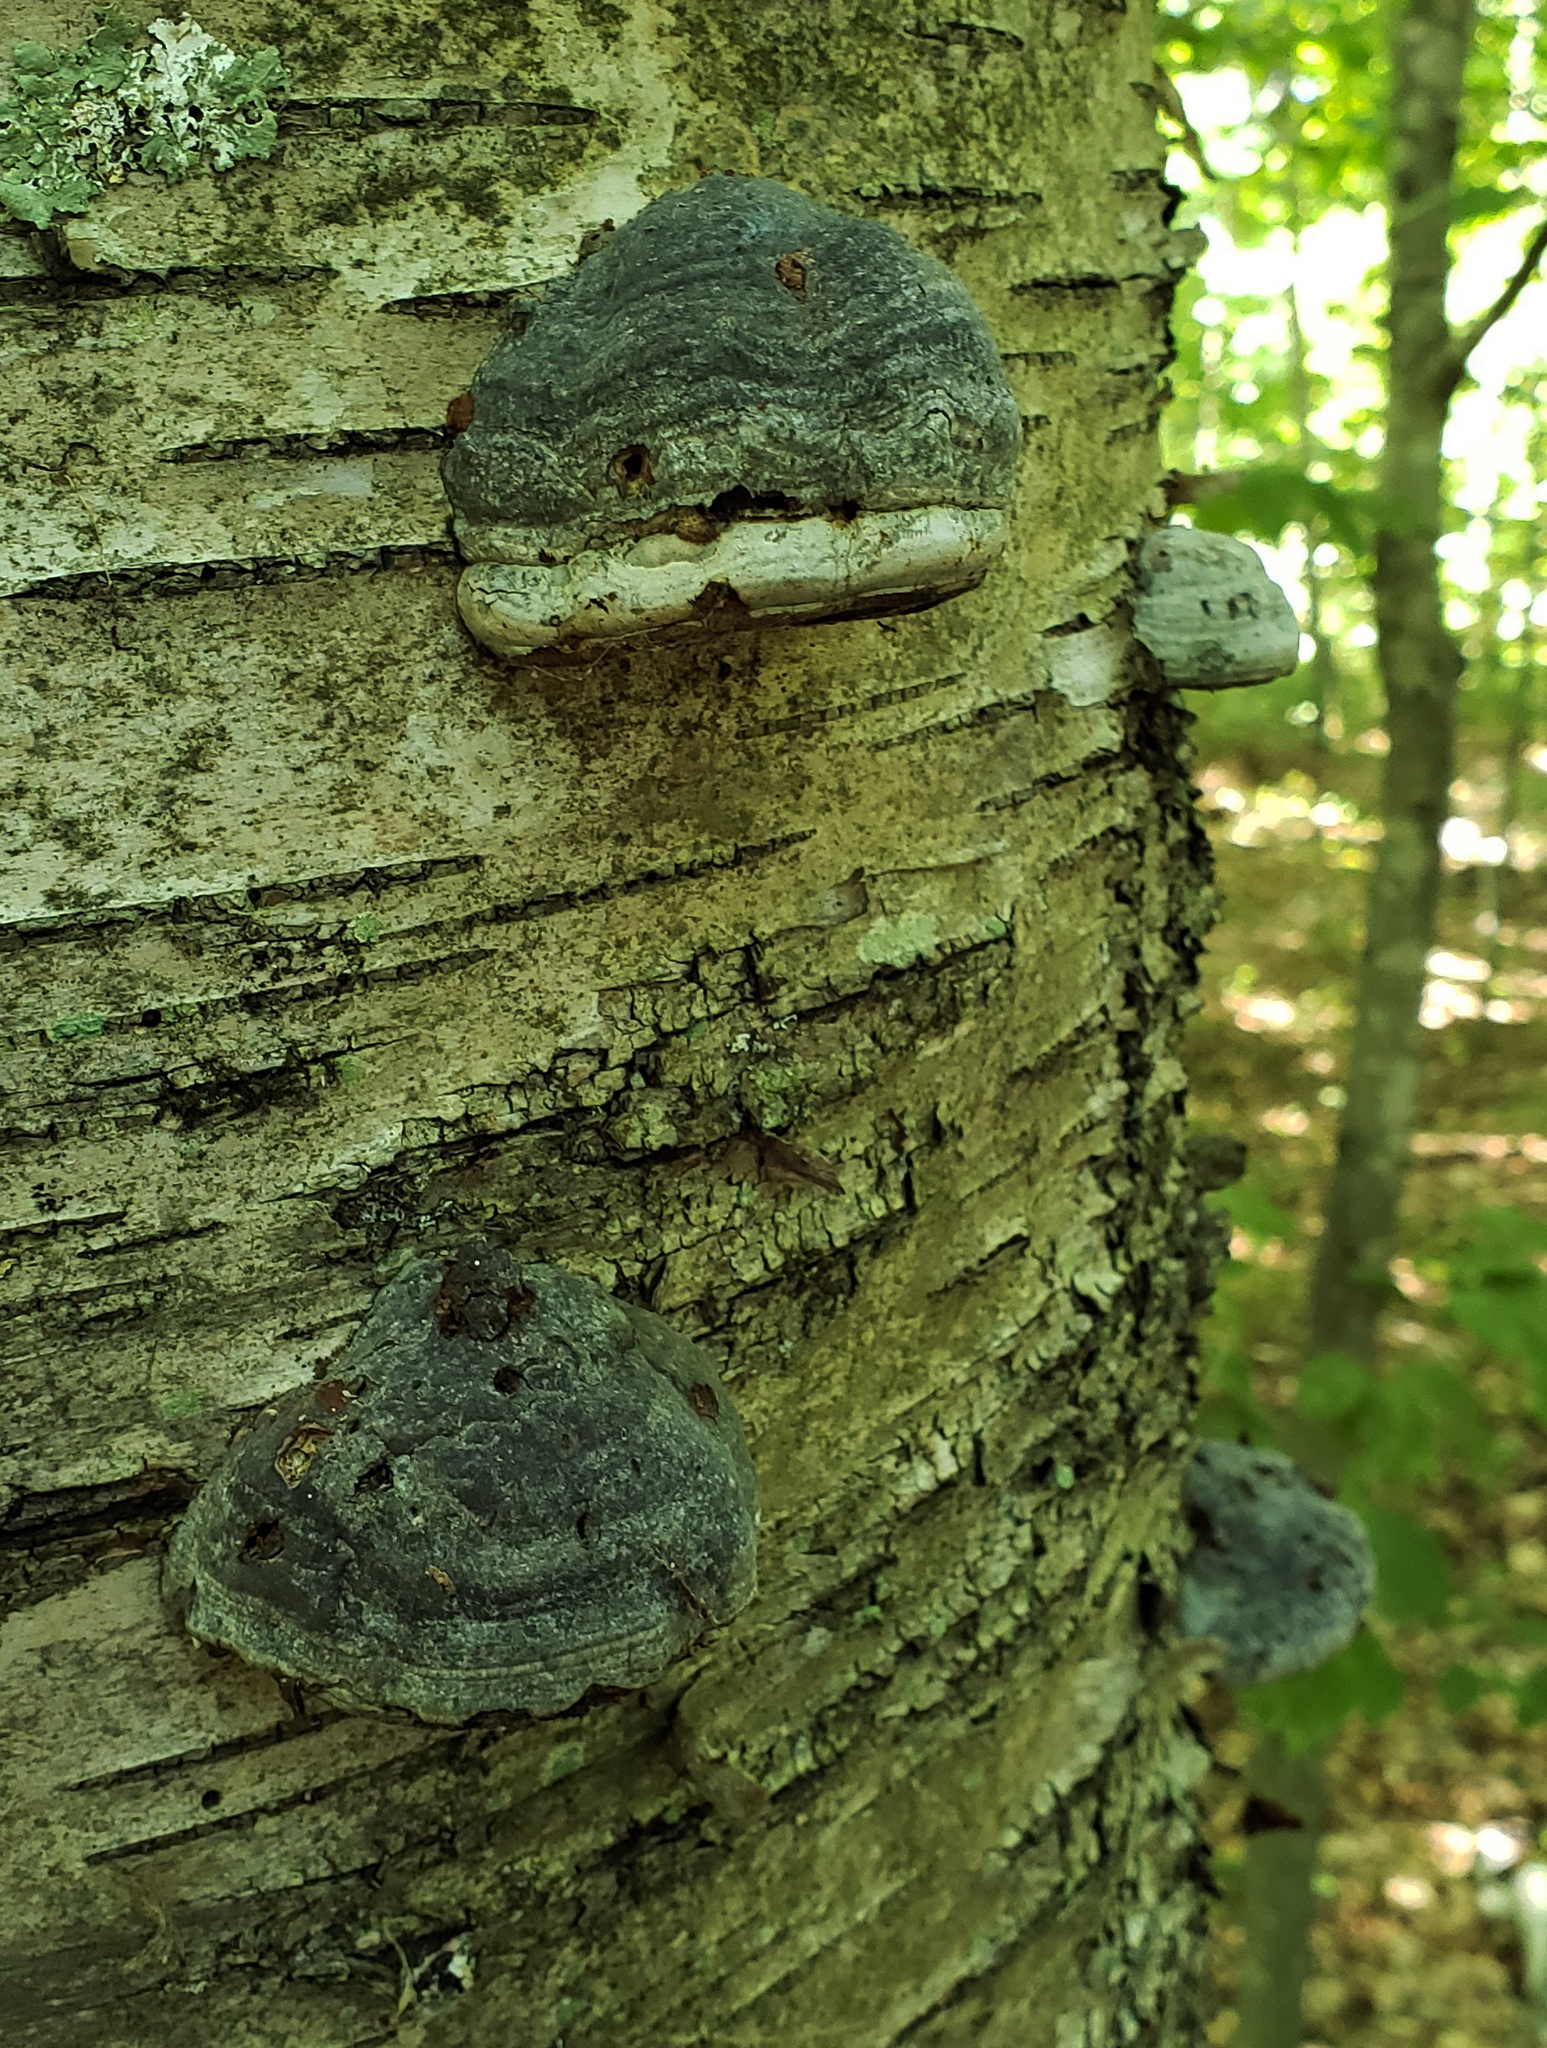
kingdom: Fungi
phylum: Basidiomycota
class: Agaricomycetes
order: Polyporales
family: Polyporaceae
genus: Fomes
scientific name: Fomes fomentarius
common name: Hoof fungus
